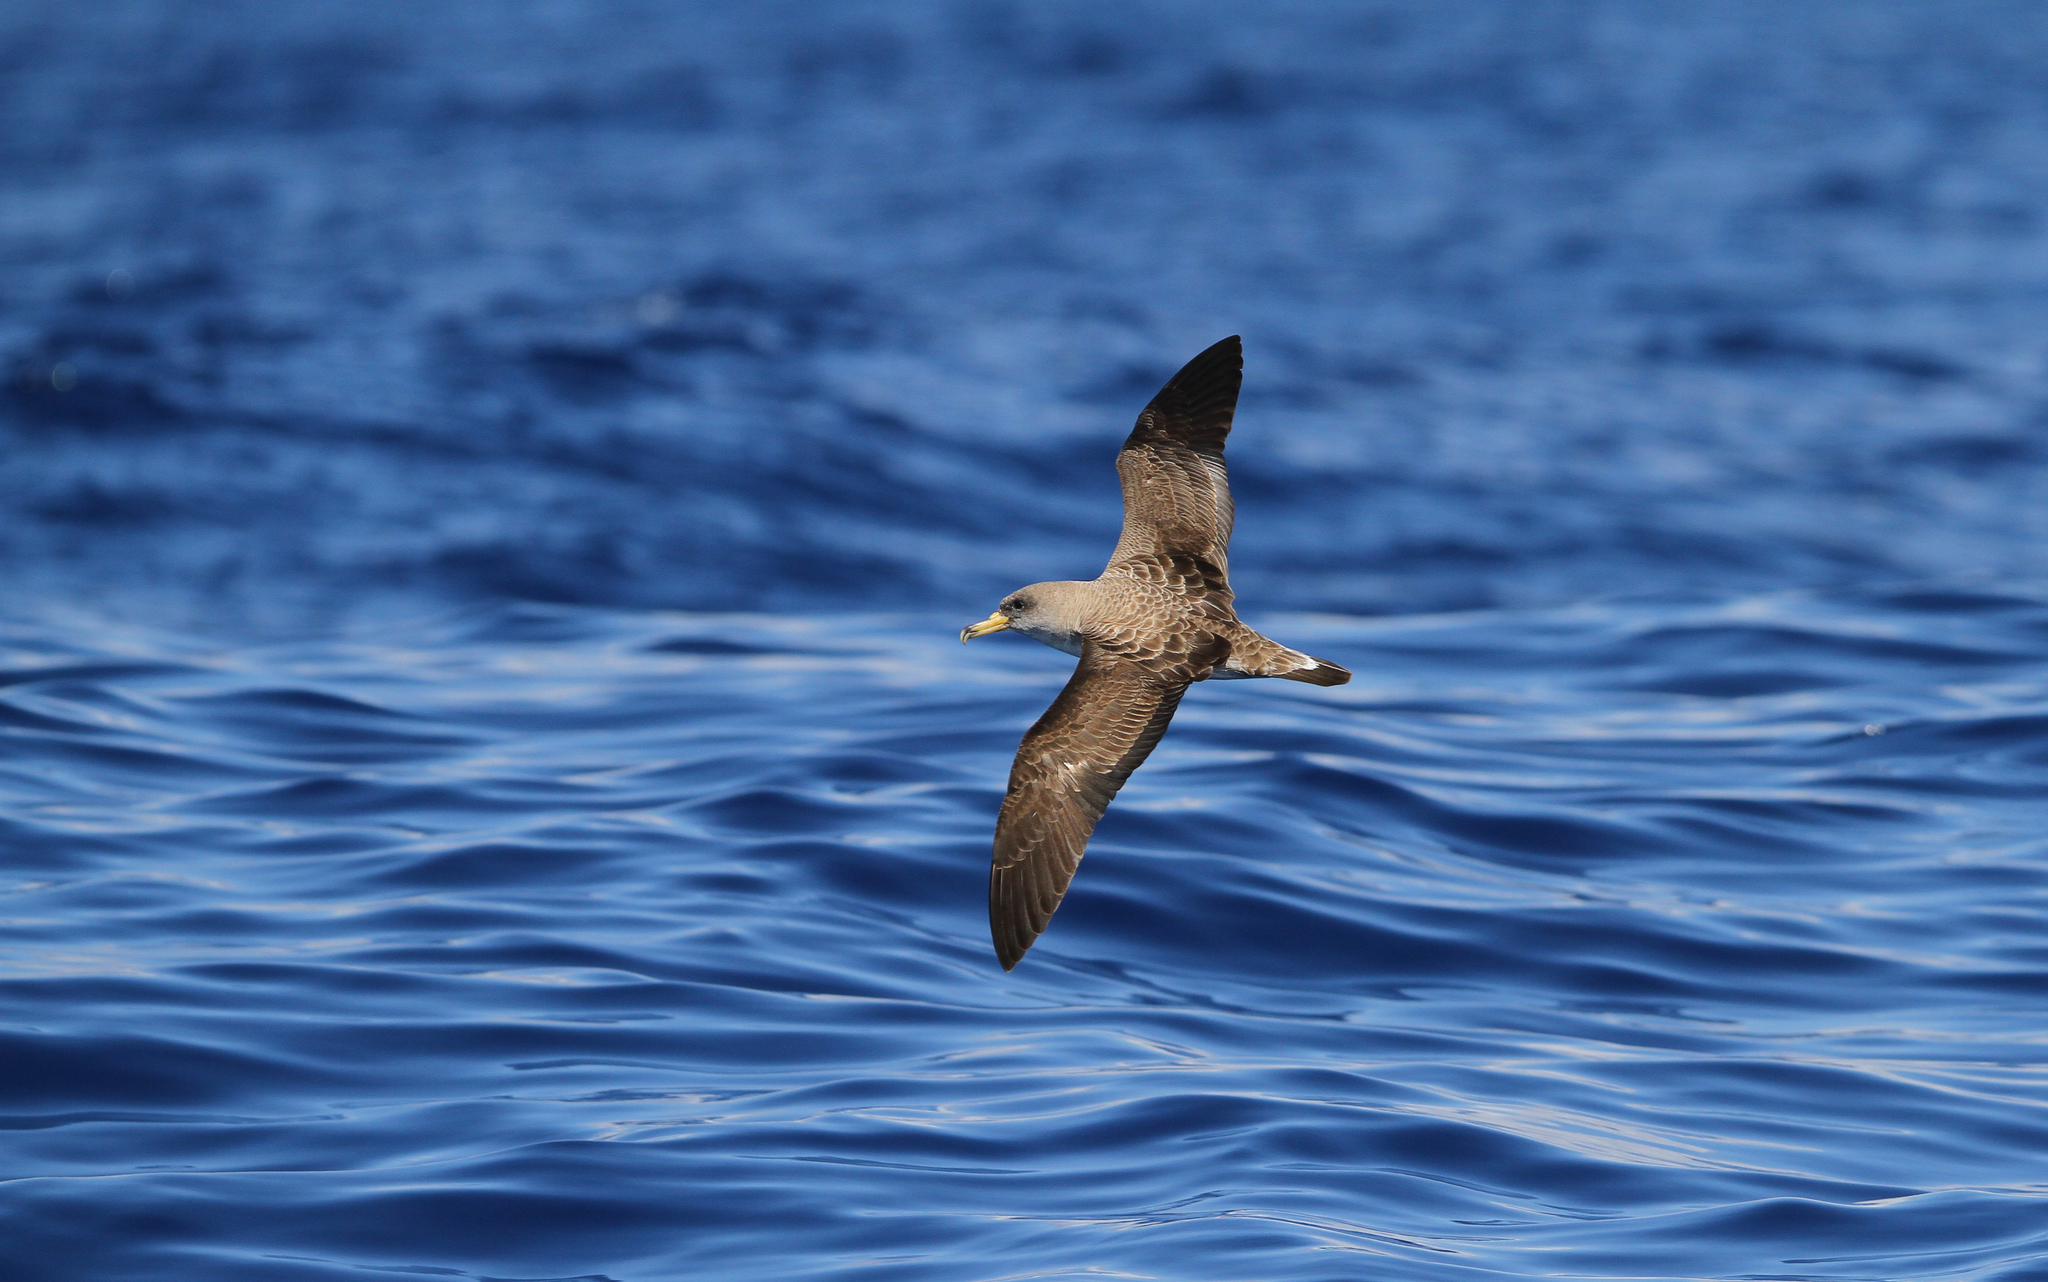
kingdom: Animalia
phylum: Chordata
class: Aves
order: Procellariiformes
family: Procellariidae
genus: Calonectris
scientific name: Calonectris diomedea
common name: Cory's shearwater
